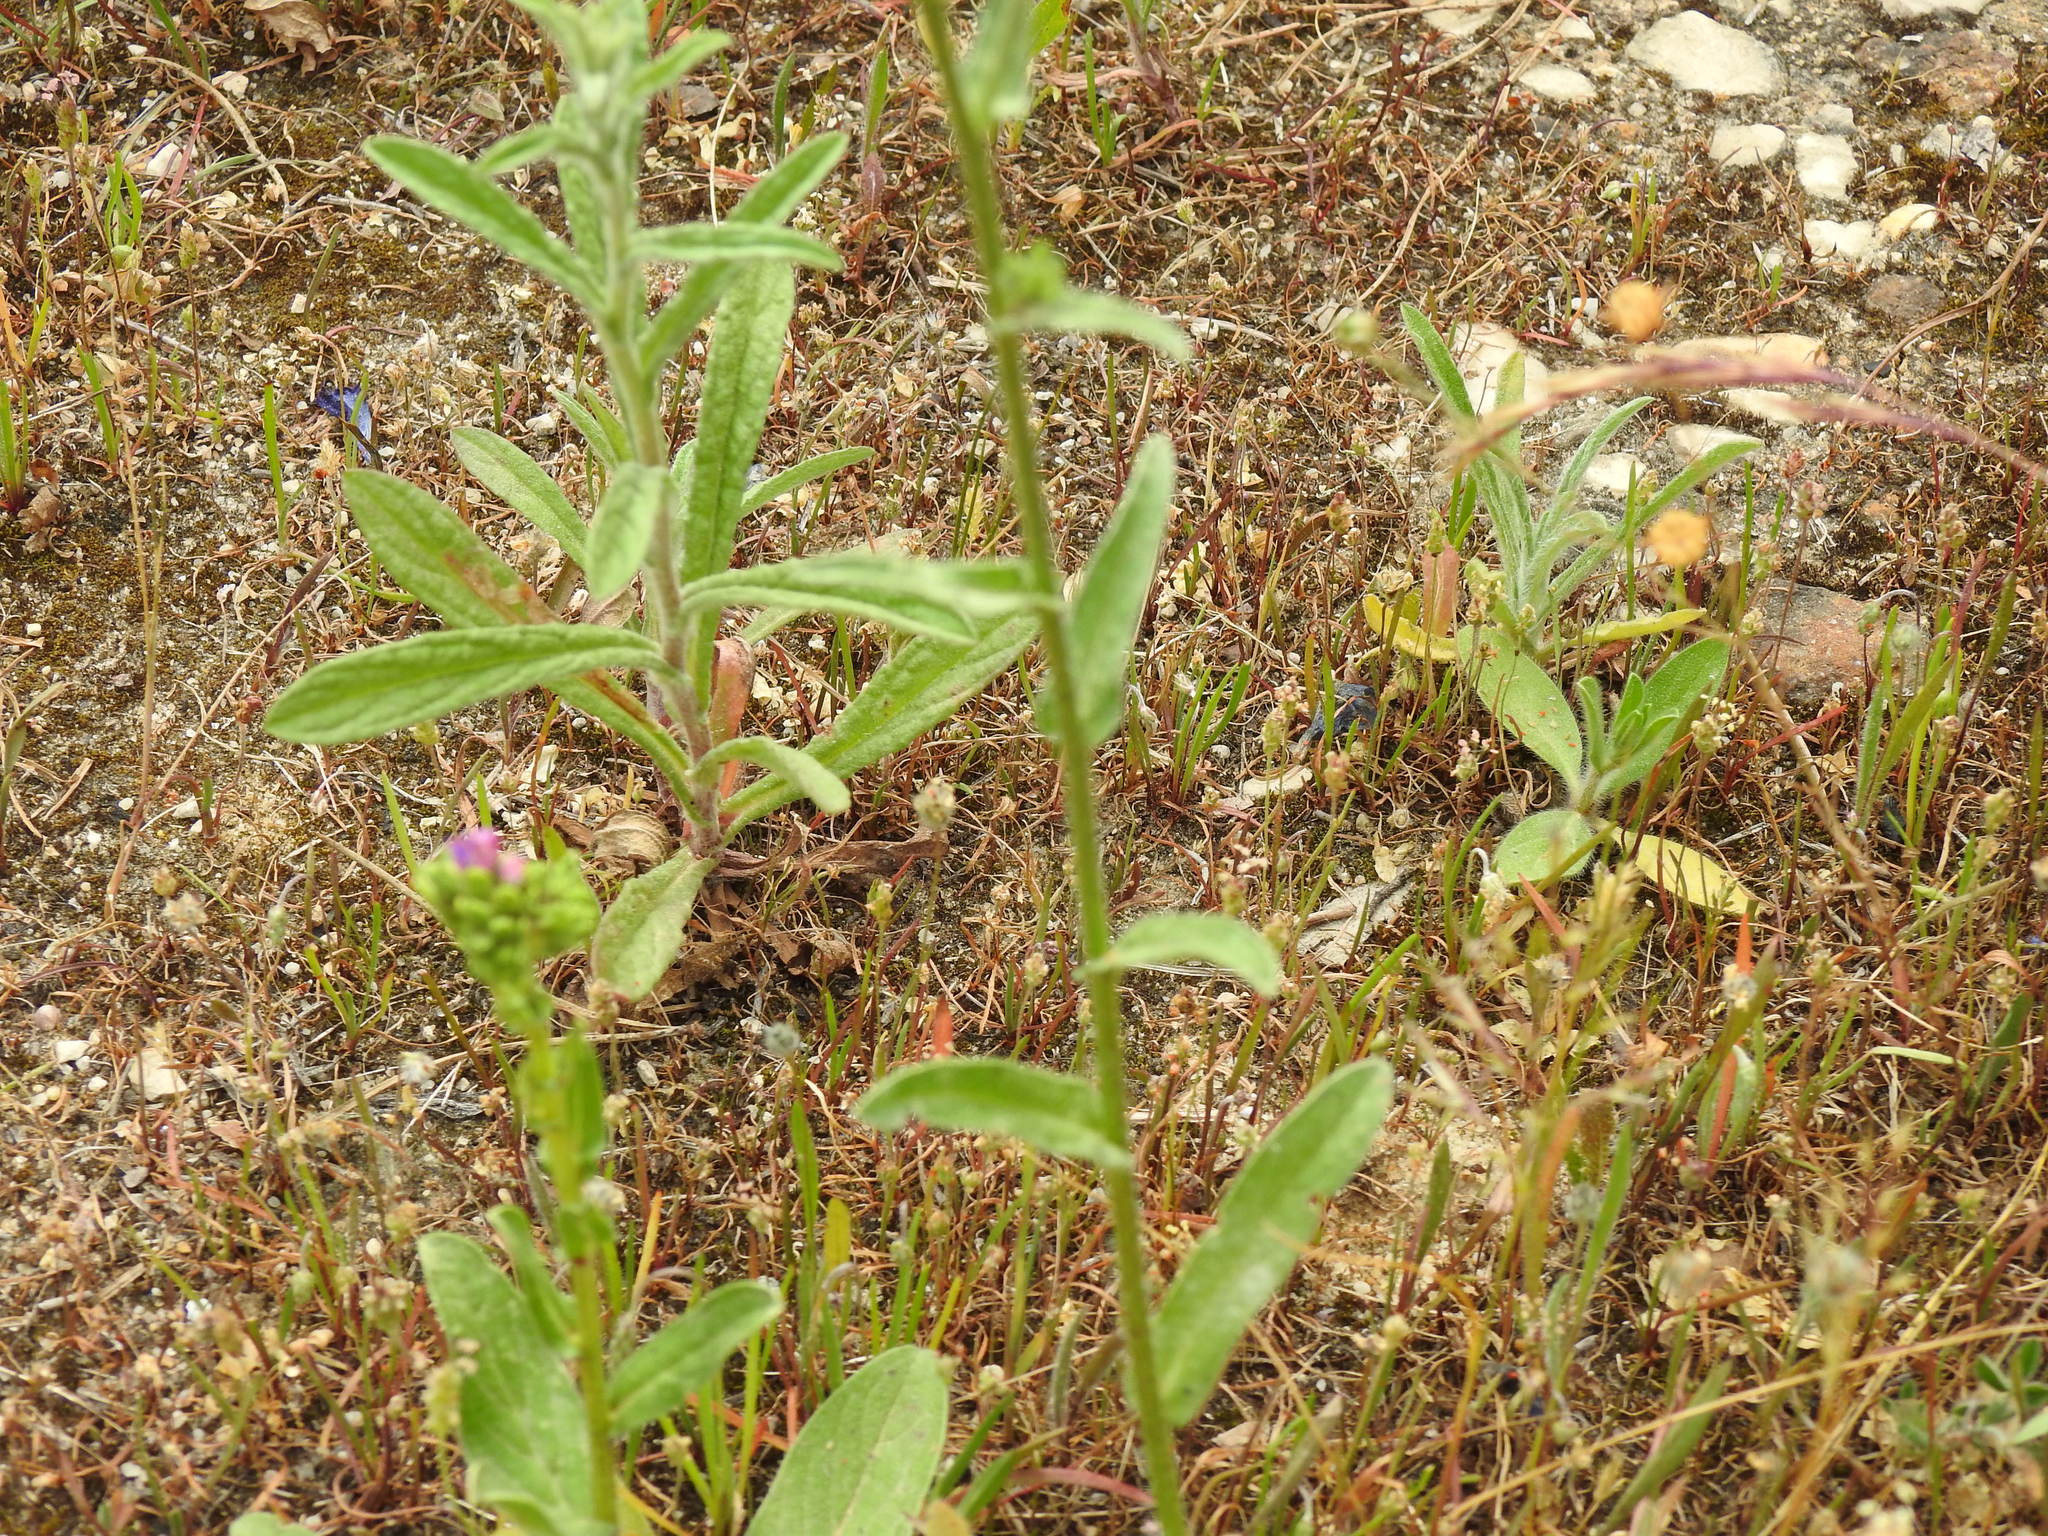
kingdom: Plantae
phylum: Tracheophyta
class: Magnoliopsida
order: Boraginales
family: Boraginaceae
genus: Echium
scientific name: Echium plantagineum
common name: Purple viper's-bugloss
